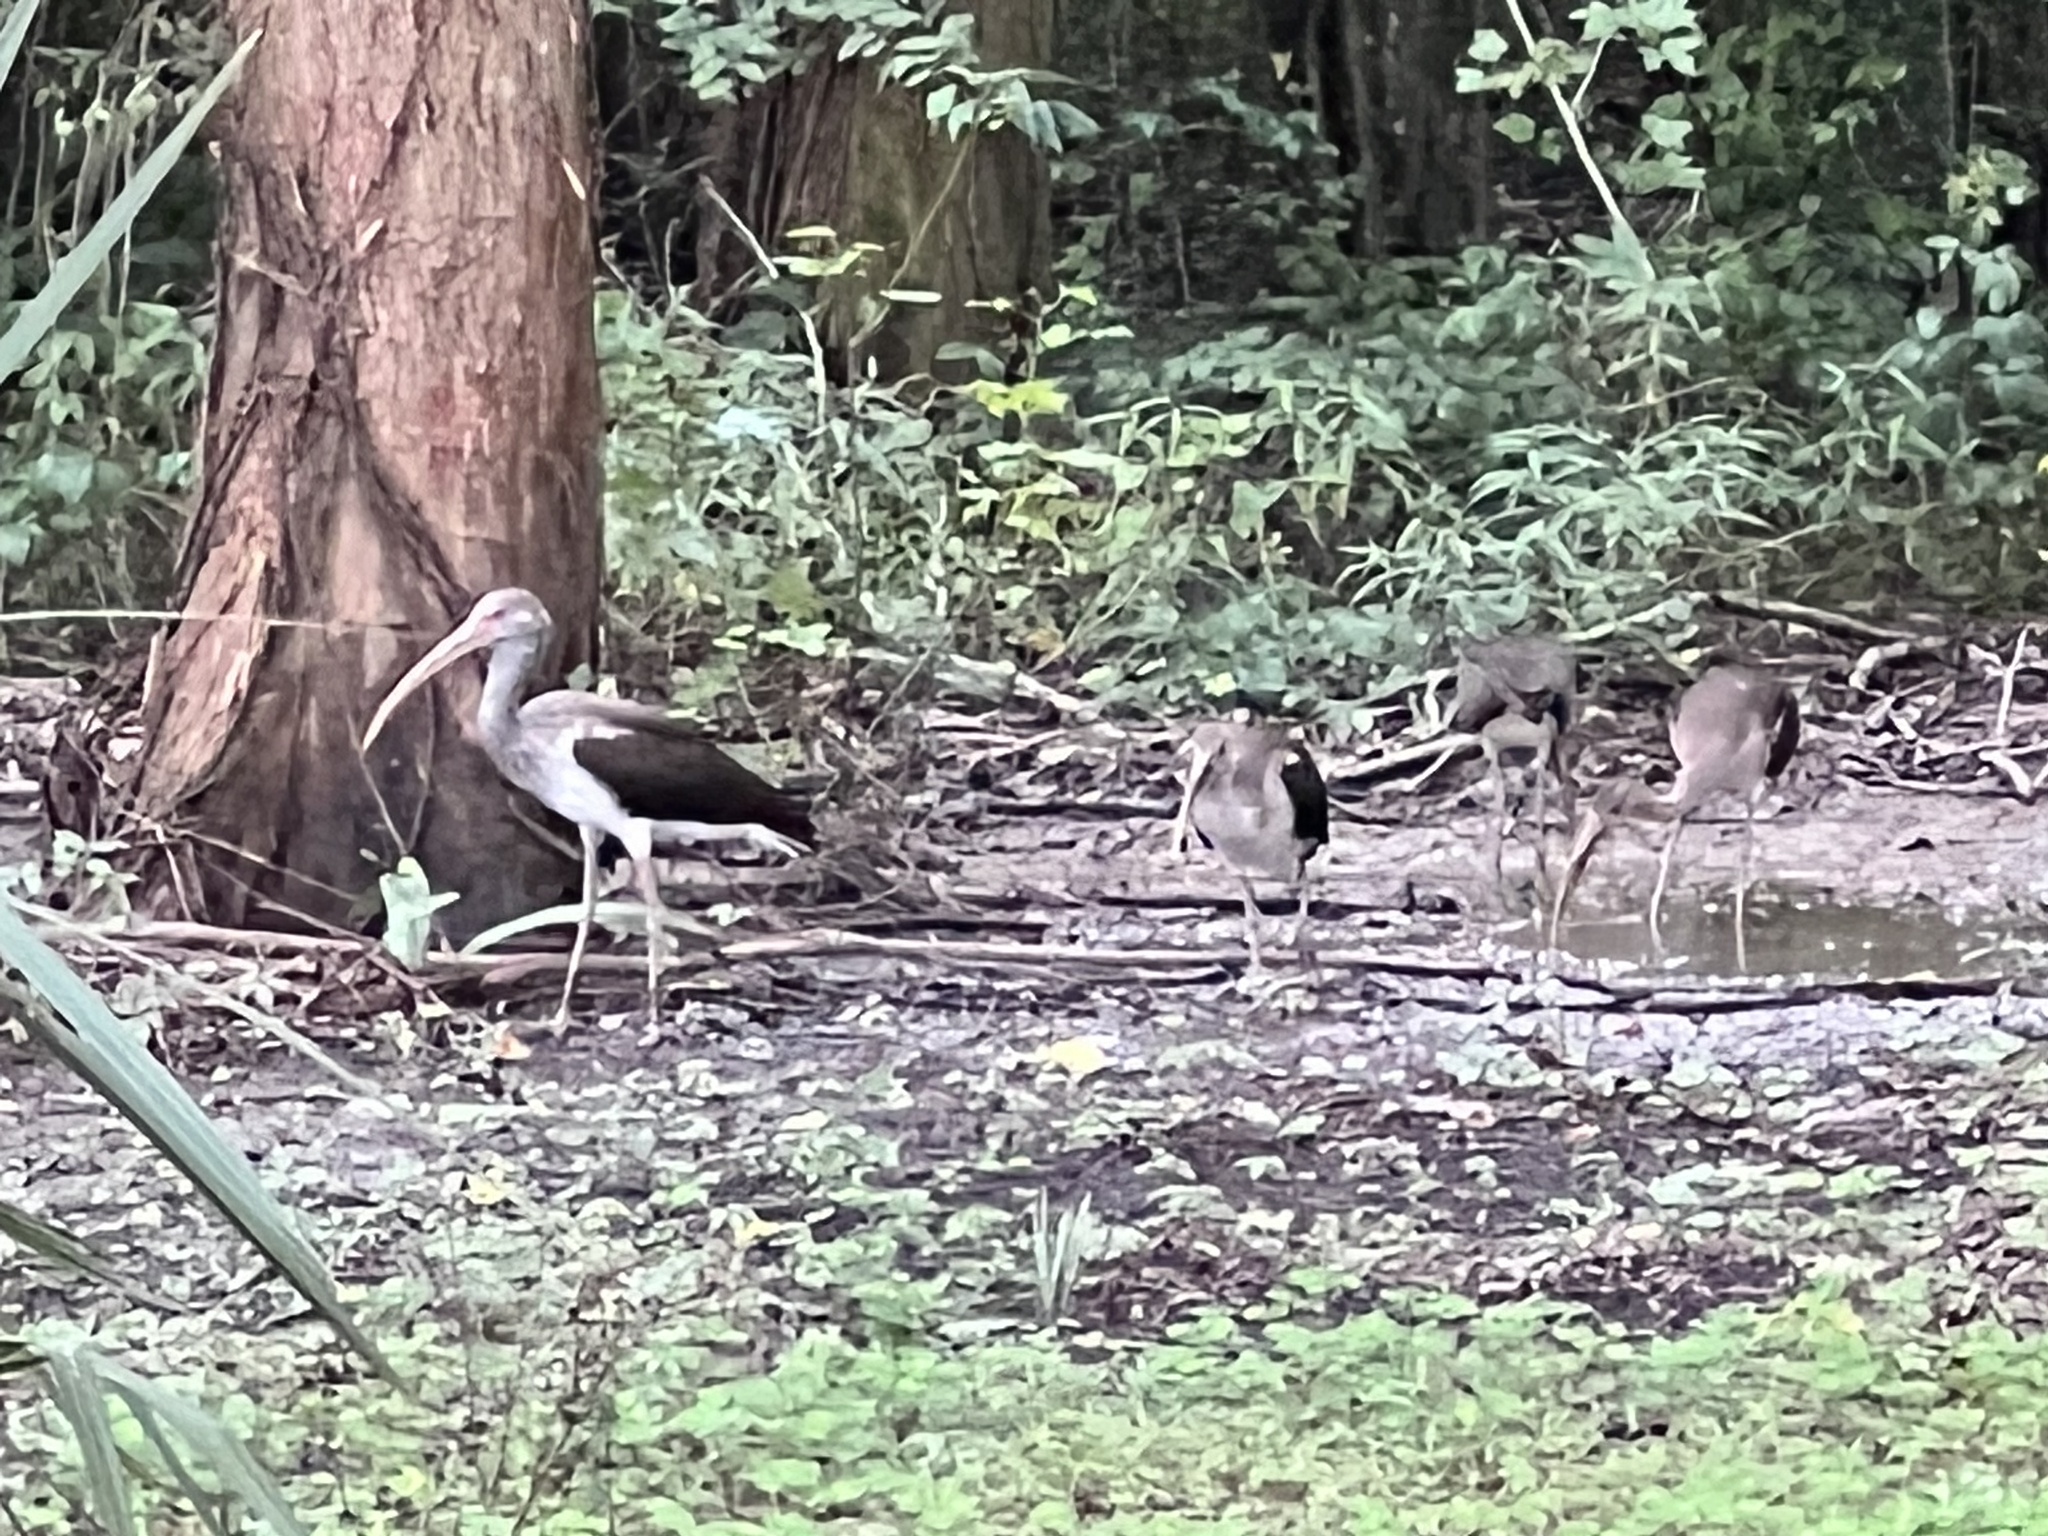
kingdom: Animalia
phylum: Chordata
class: Aves
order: Pelecaniformes
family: Threskiornithidae
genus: Eudocimus
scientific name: Eudocimus albus
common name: White ibis
